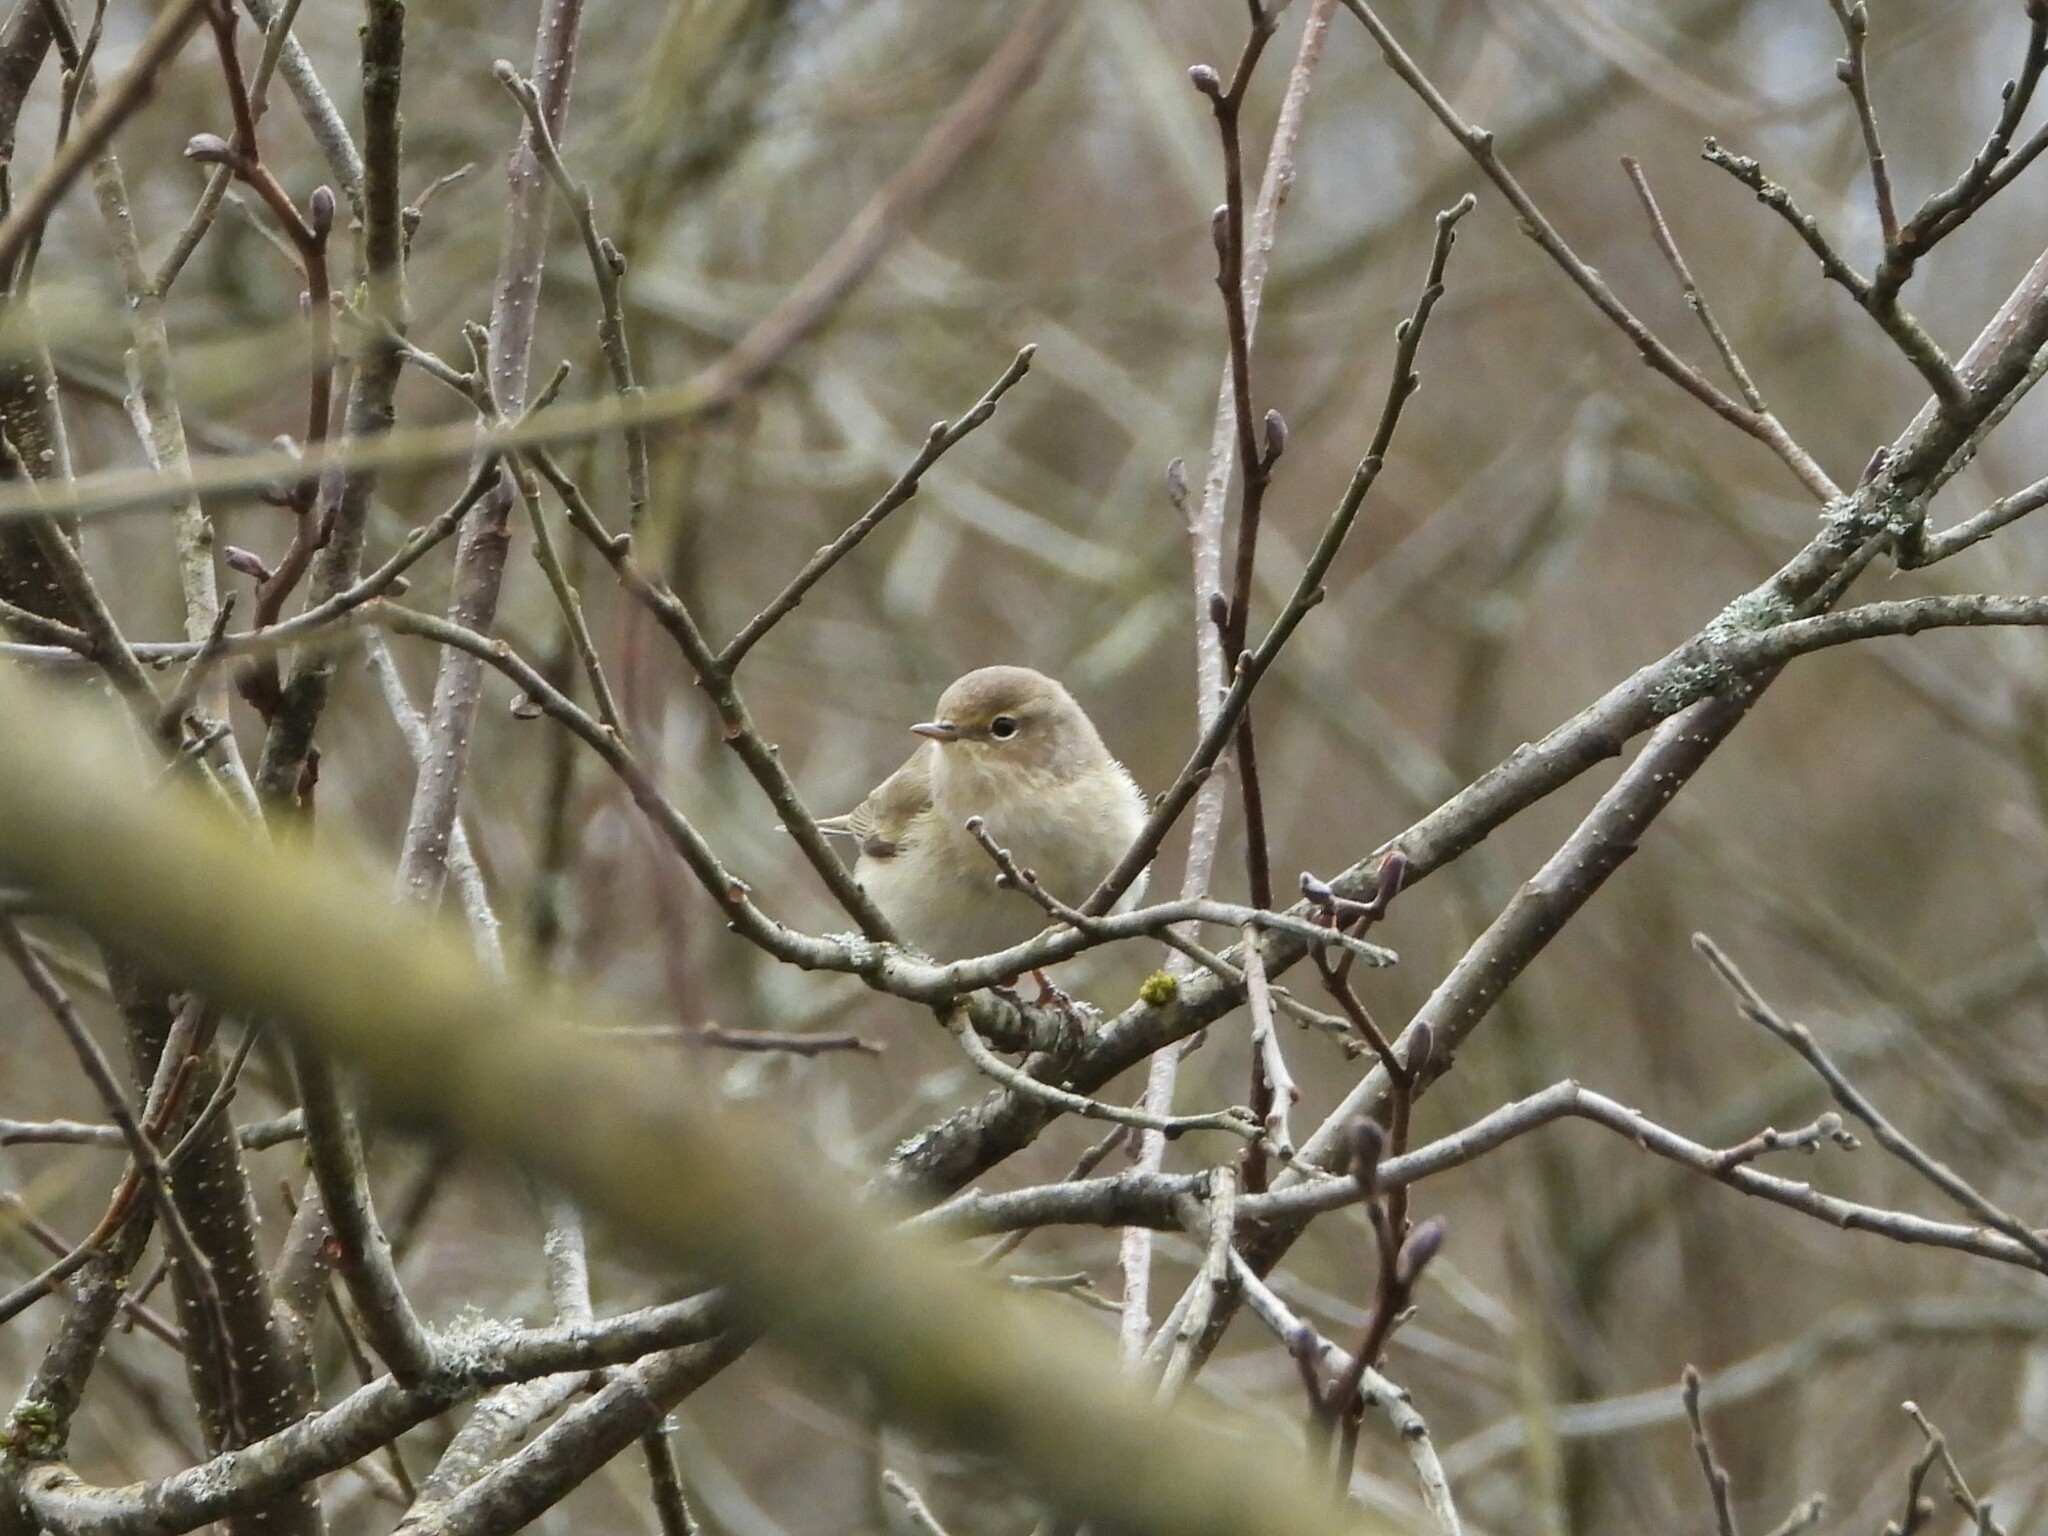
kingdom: Animalia
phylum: Chordata
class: Aves
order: Passeriformes
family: Phylloscopidae
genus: Phylloscopus
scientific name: Phylloscopus collybita
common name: Common chiffchaff
